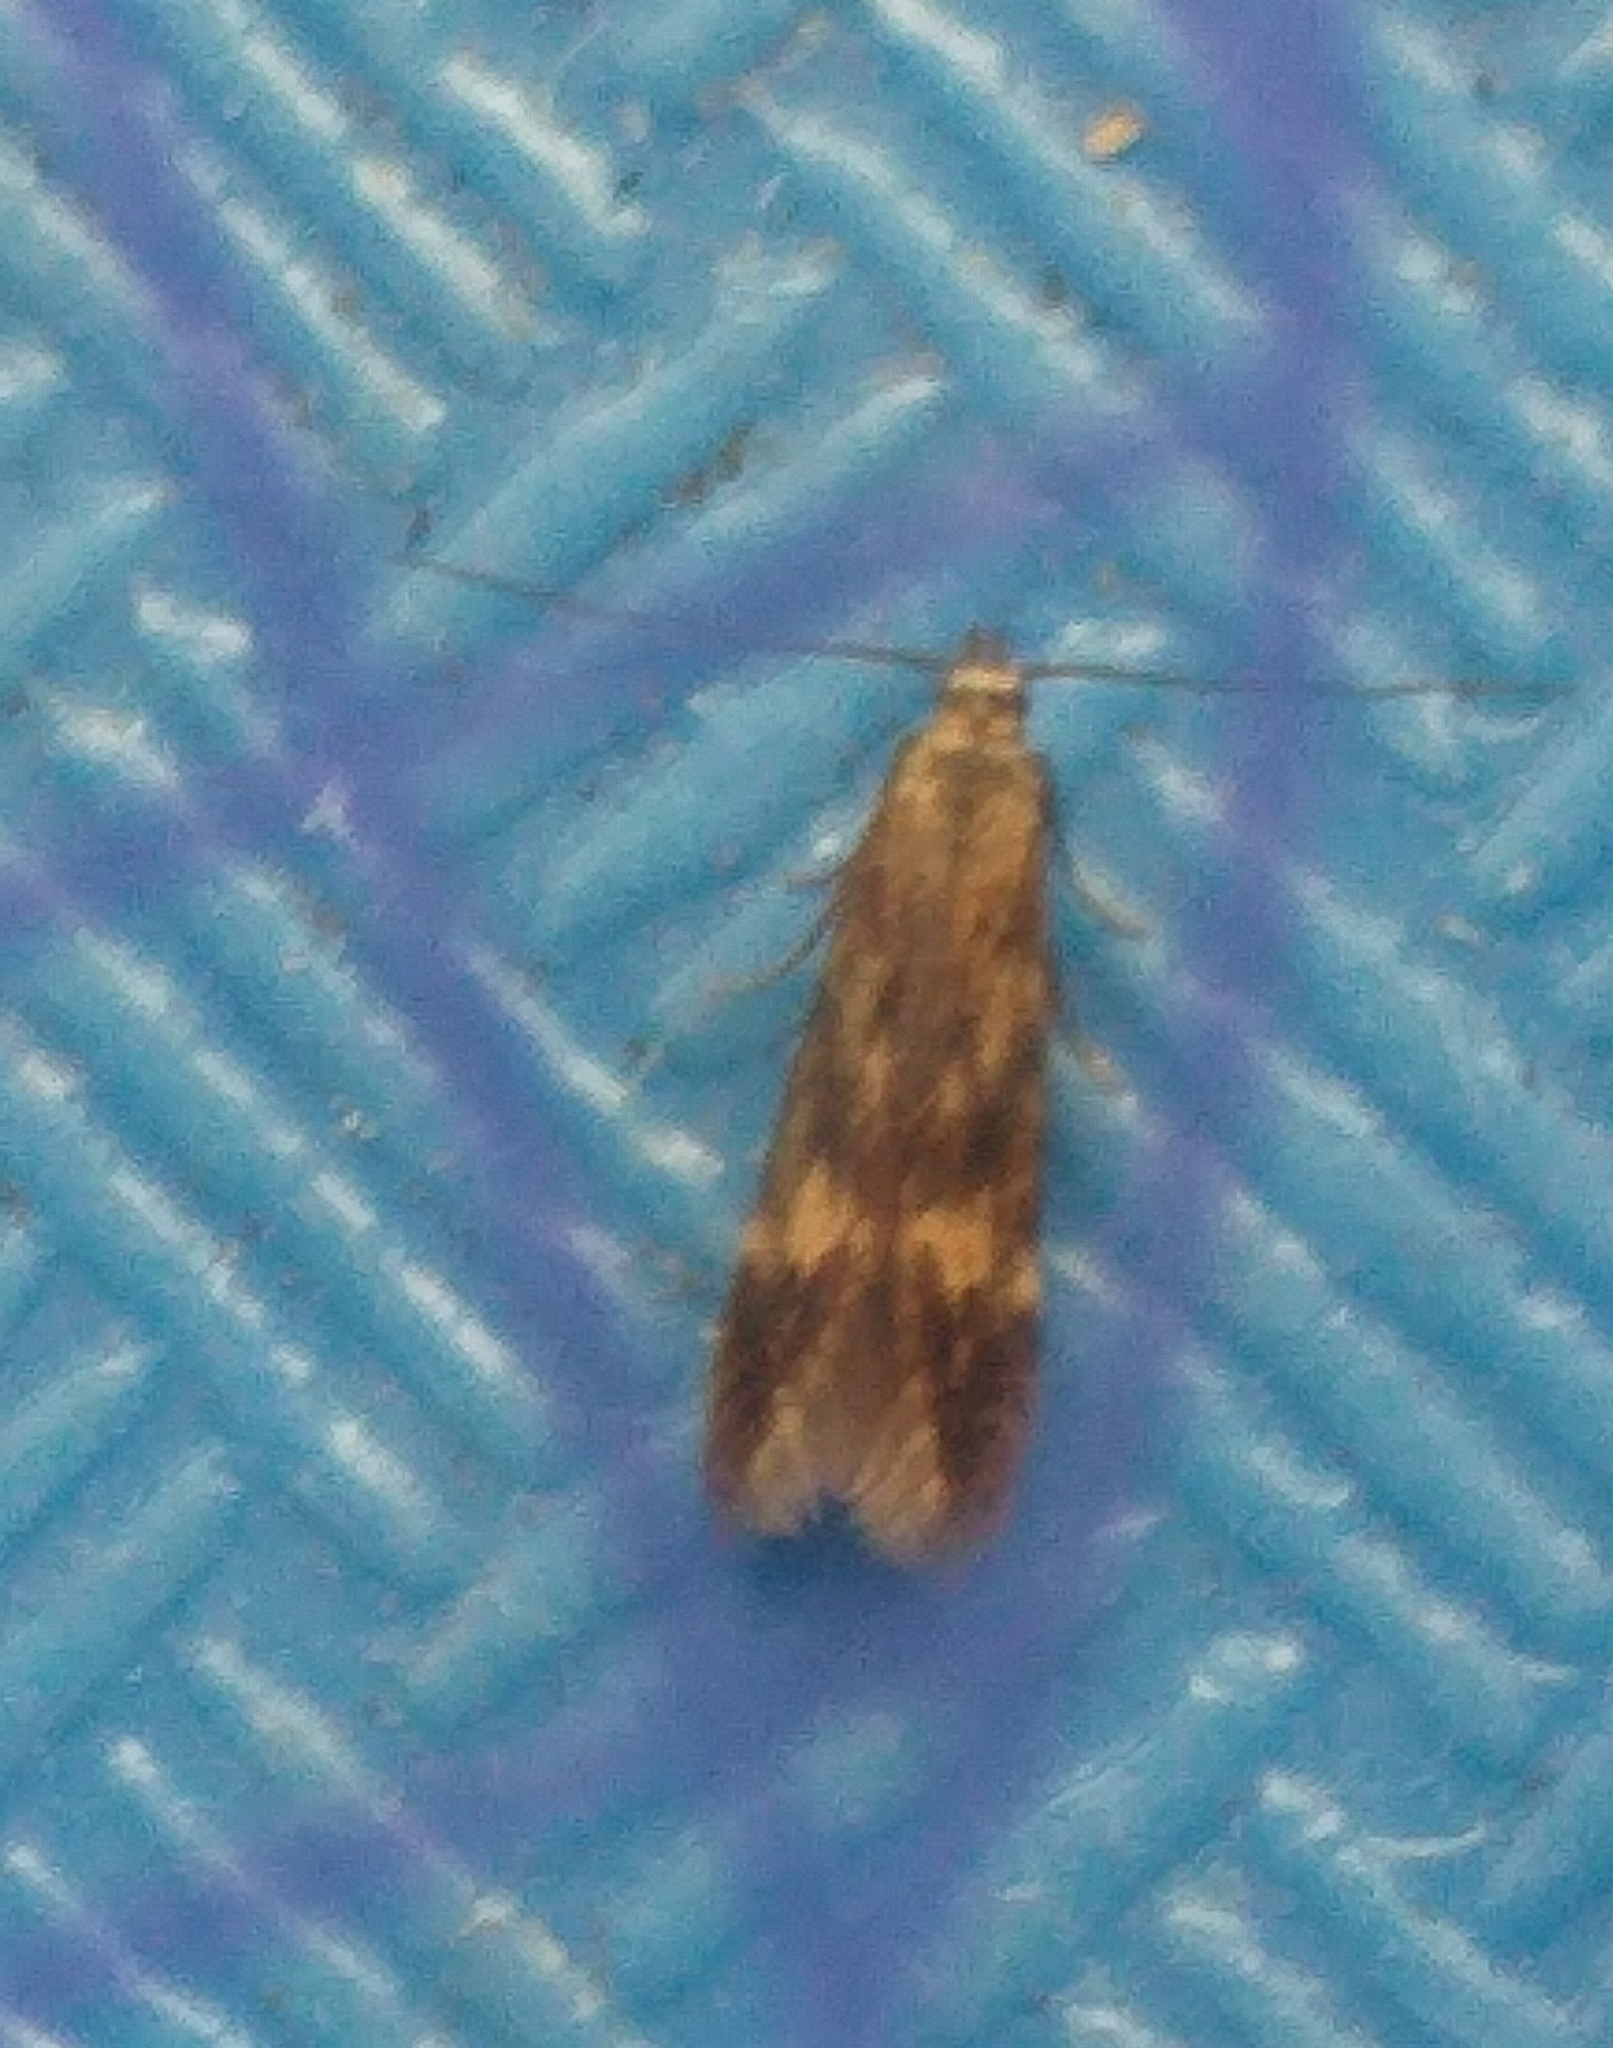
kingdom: Animalia
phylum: Arthropoda
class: Insecta
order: Lepidoptera
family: Gelechiidae
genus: Monochroa
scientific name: Monochroa lucidella
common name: Buff-marked neb
